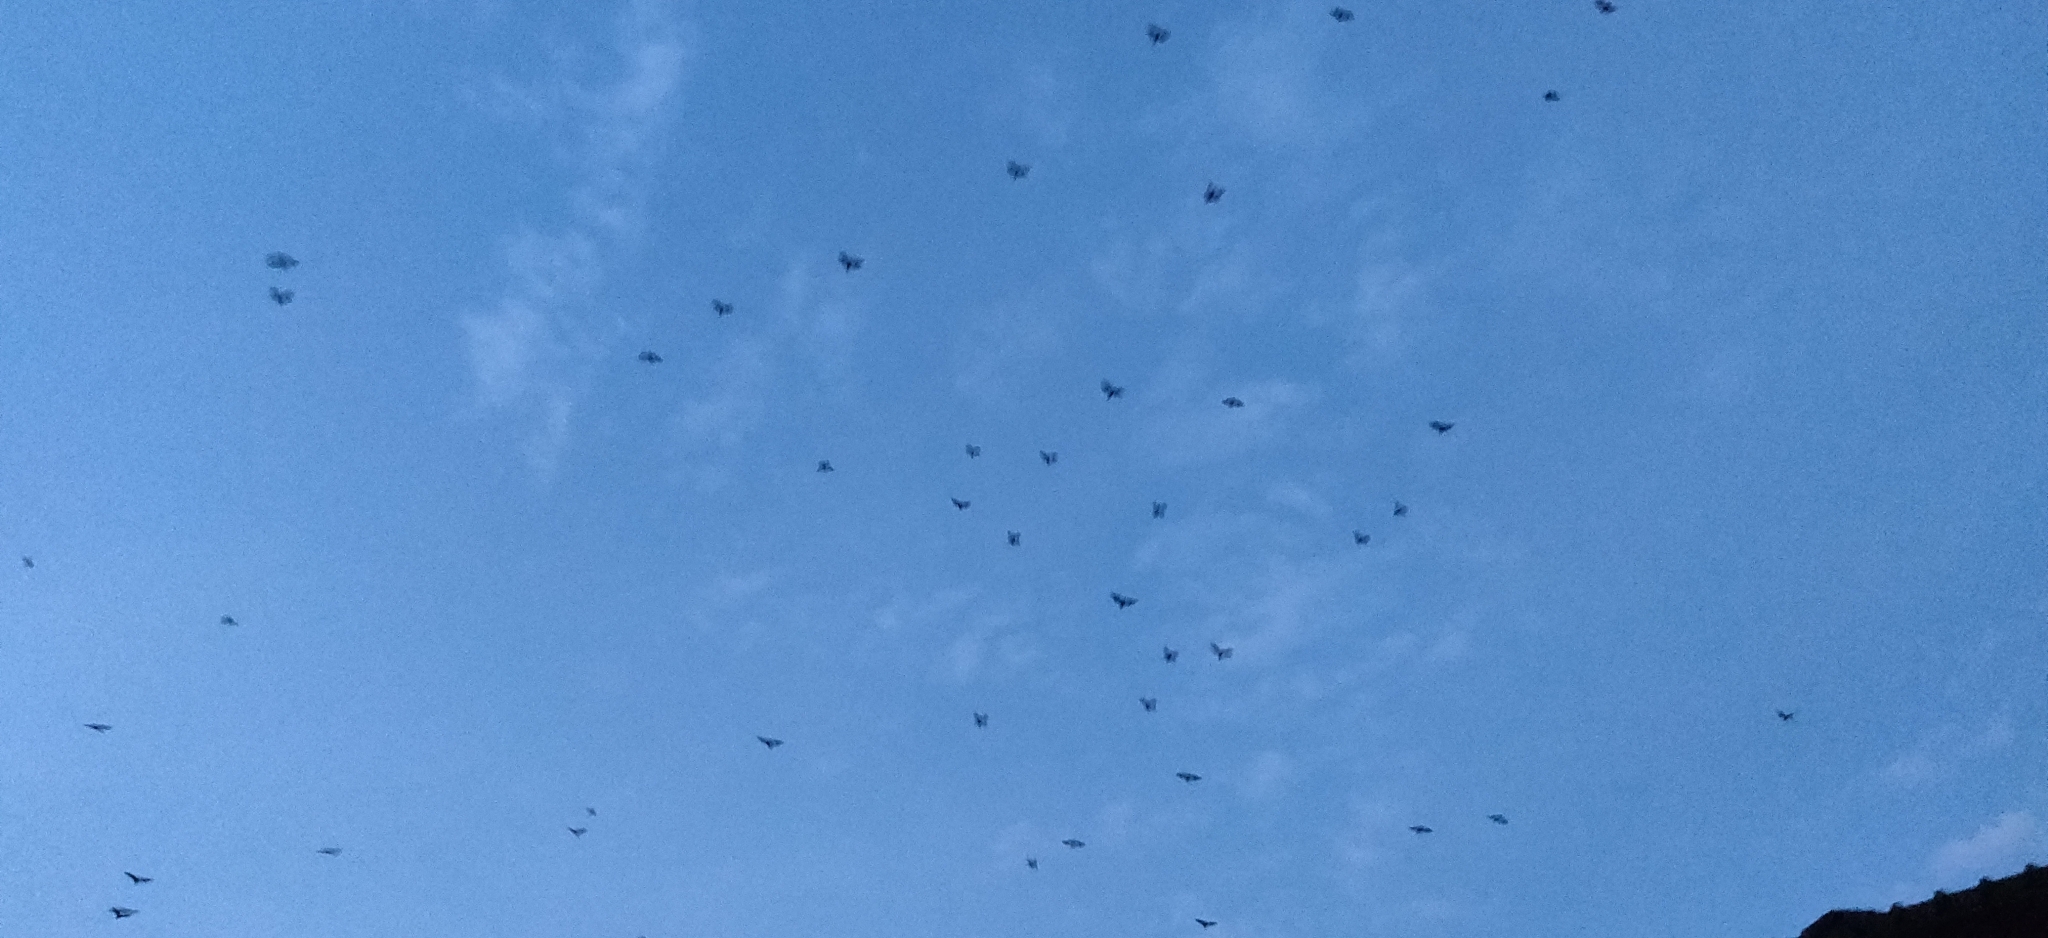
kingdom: Animalia
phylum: Chordata
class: Mammalia
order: Chiroptera
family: Pteropodidae
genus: Pteropus
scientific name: Pteropus vampyrus
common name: Large flying fox
